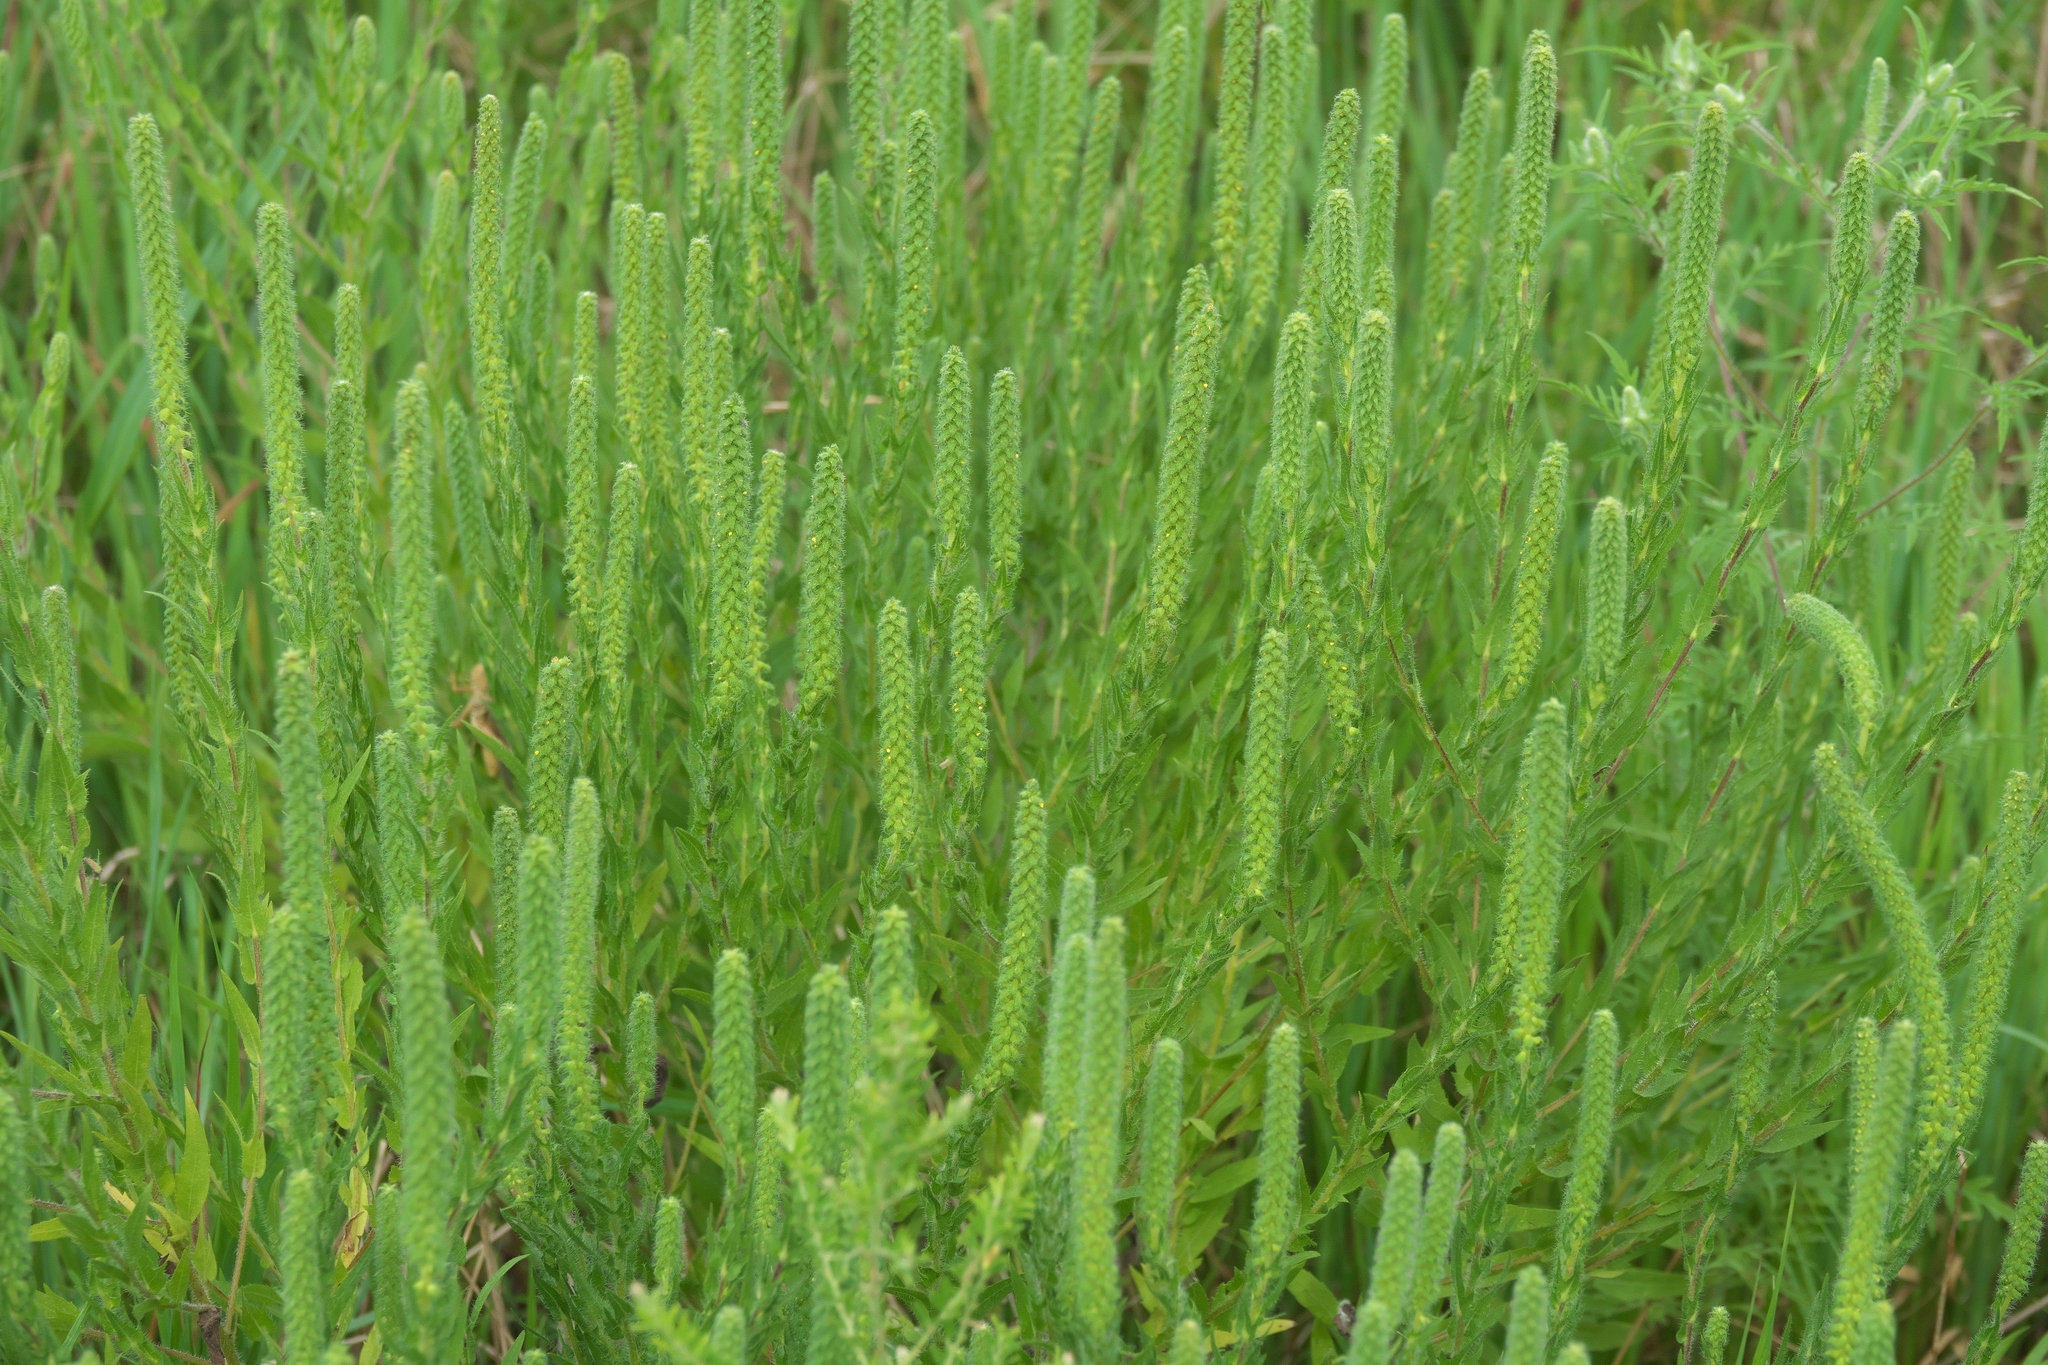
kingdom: Plantae
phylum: Tracheophyta
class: Magnoliopsida
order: Asterales
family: Asteraceae
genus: Ambrosia
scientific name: Ambrosia bidentata
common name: Southern ragweed
